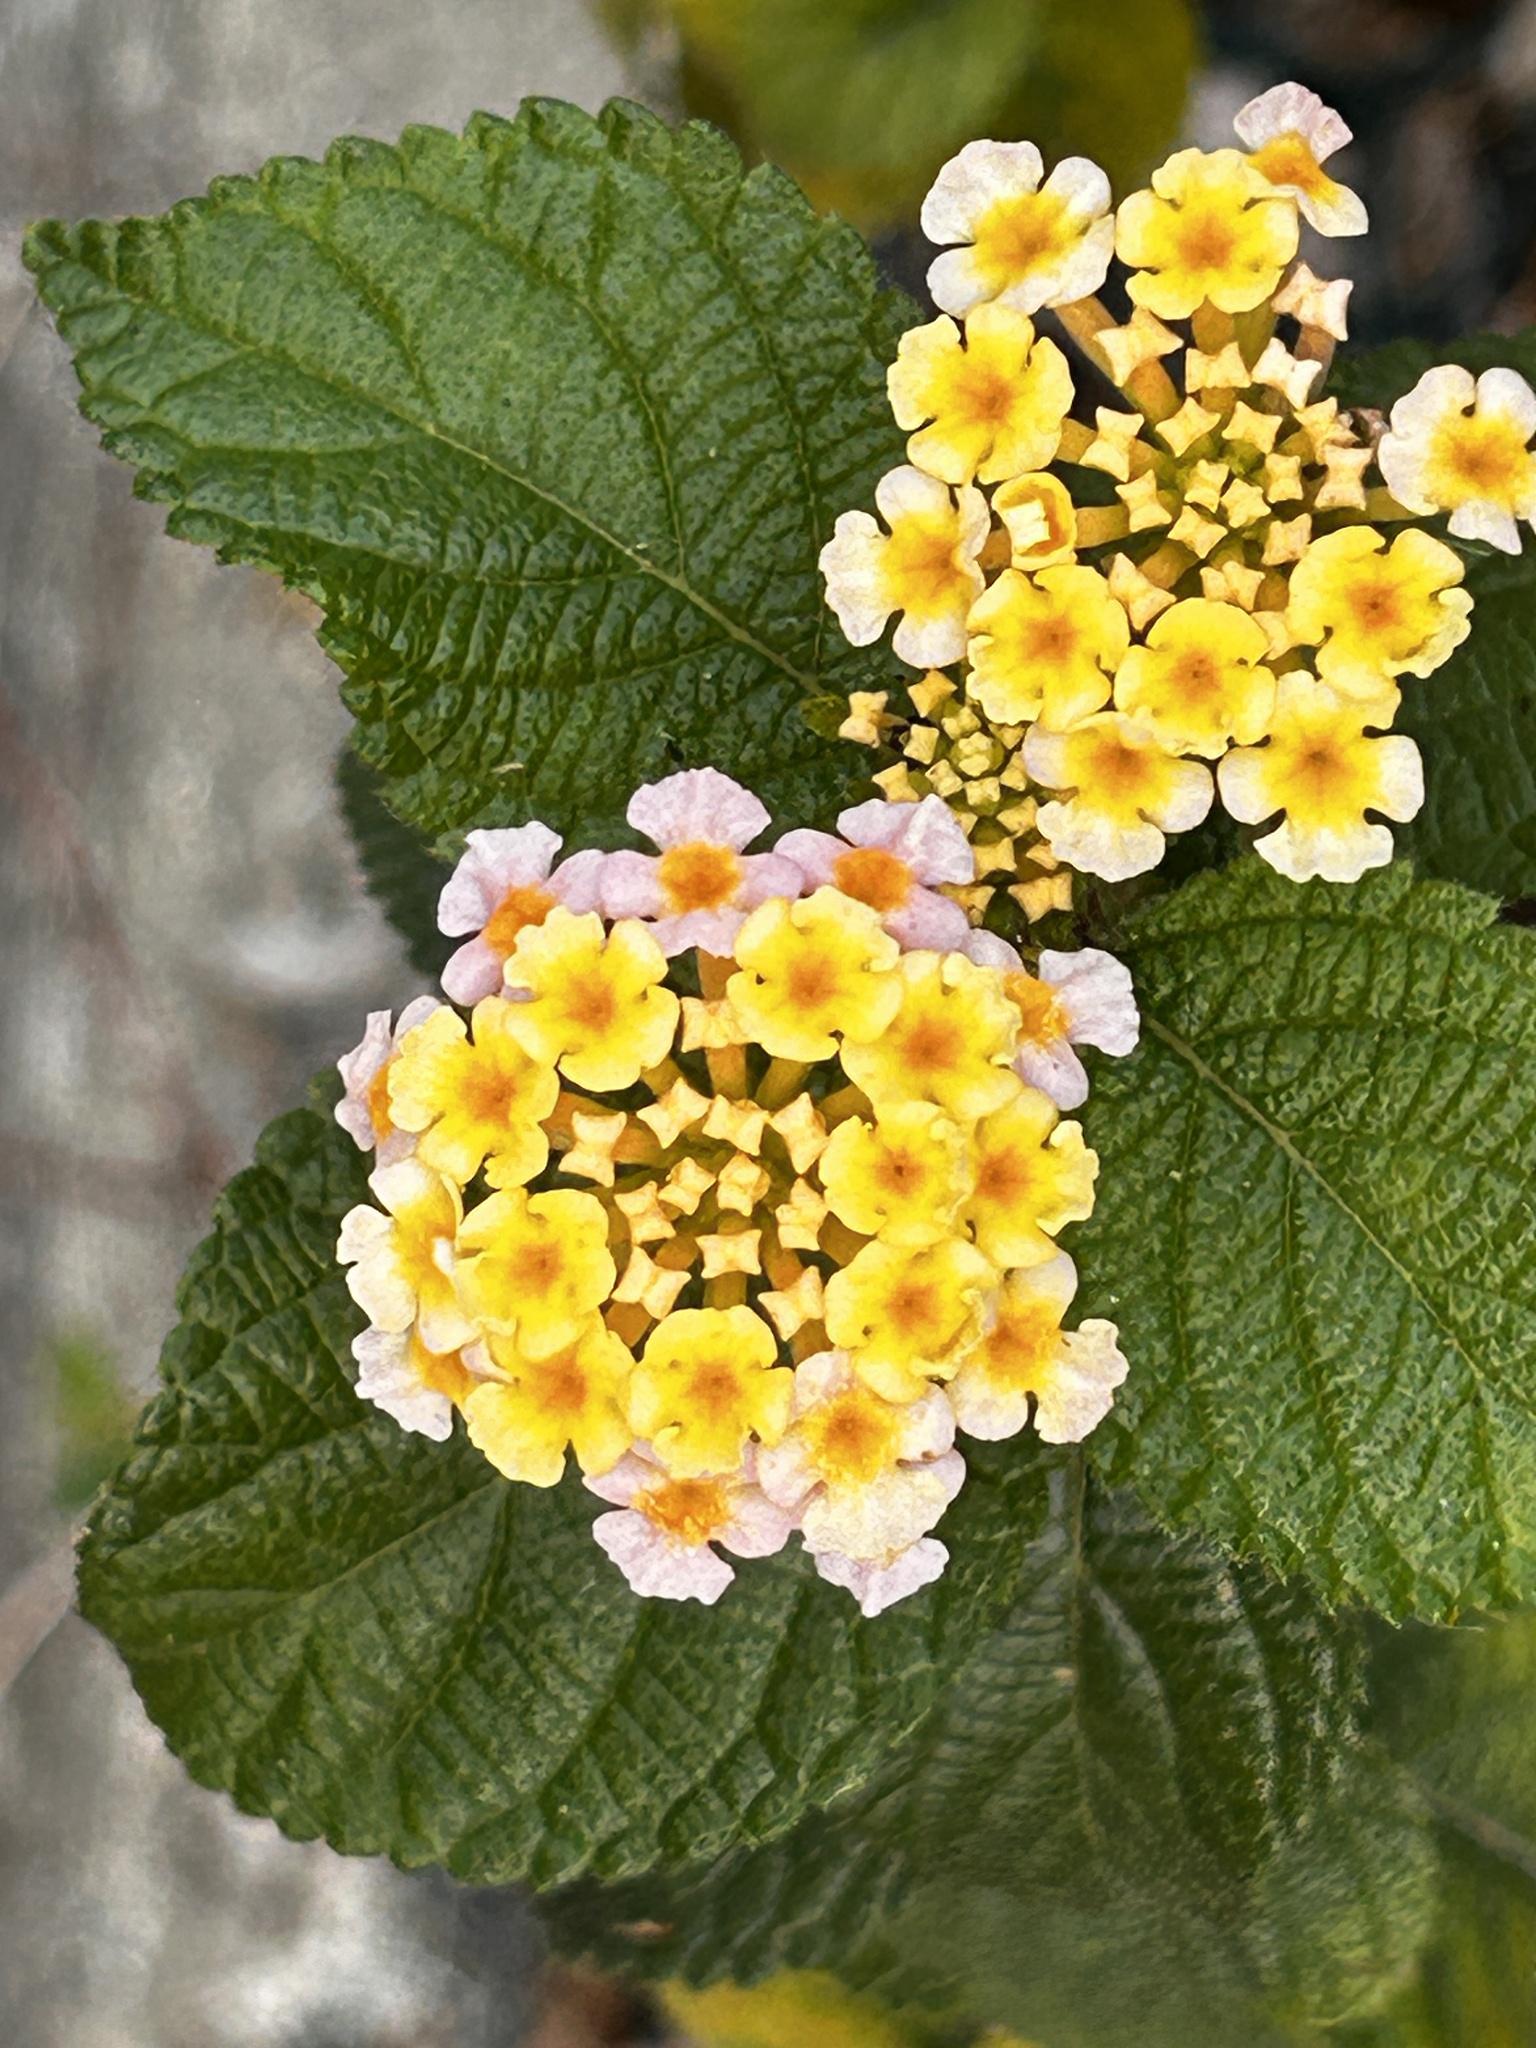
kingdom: Plantae
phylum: Tracheophyta
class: Magnoliopsida
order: Lamiales
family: Verbenaceae
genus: Lantana
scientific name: Lantana camara
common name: Lantana
